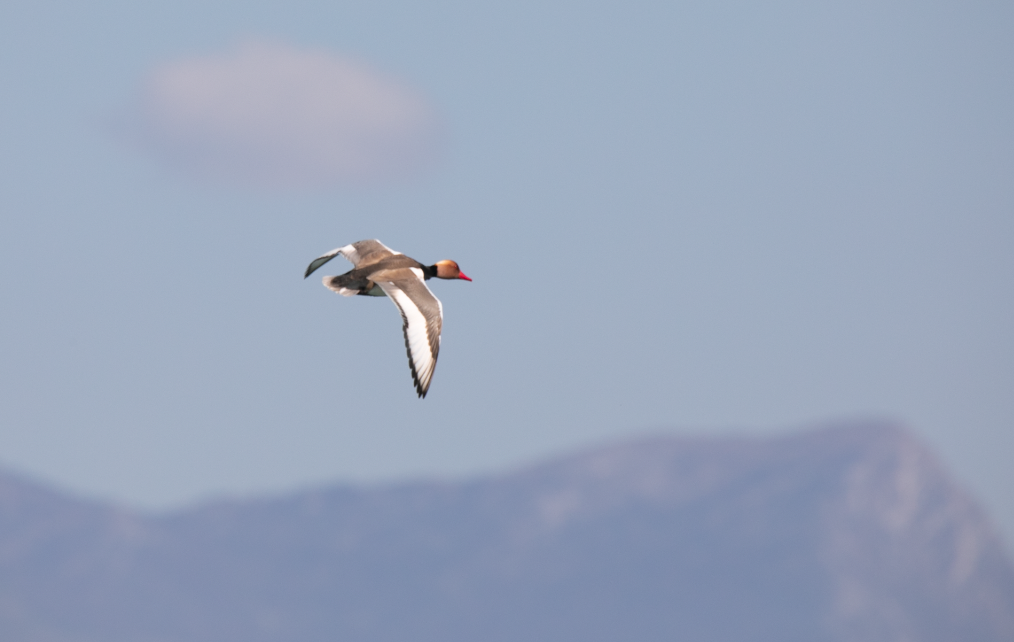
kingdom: Animalia
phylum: Chordata
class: Aves
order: Anseriformes
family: Anatidae
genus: Netta
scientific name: Netta rufina
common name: Red-crested pochard
